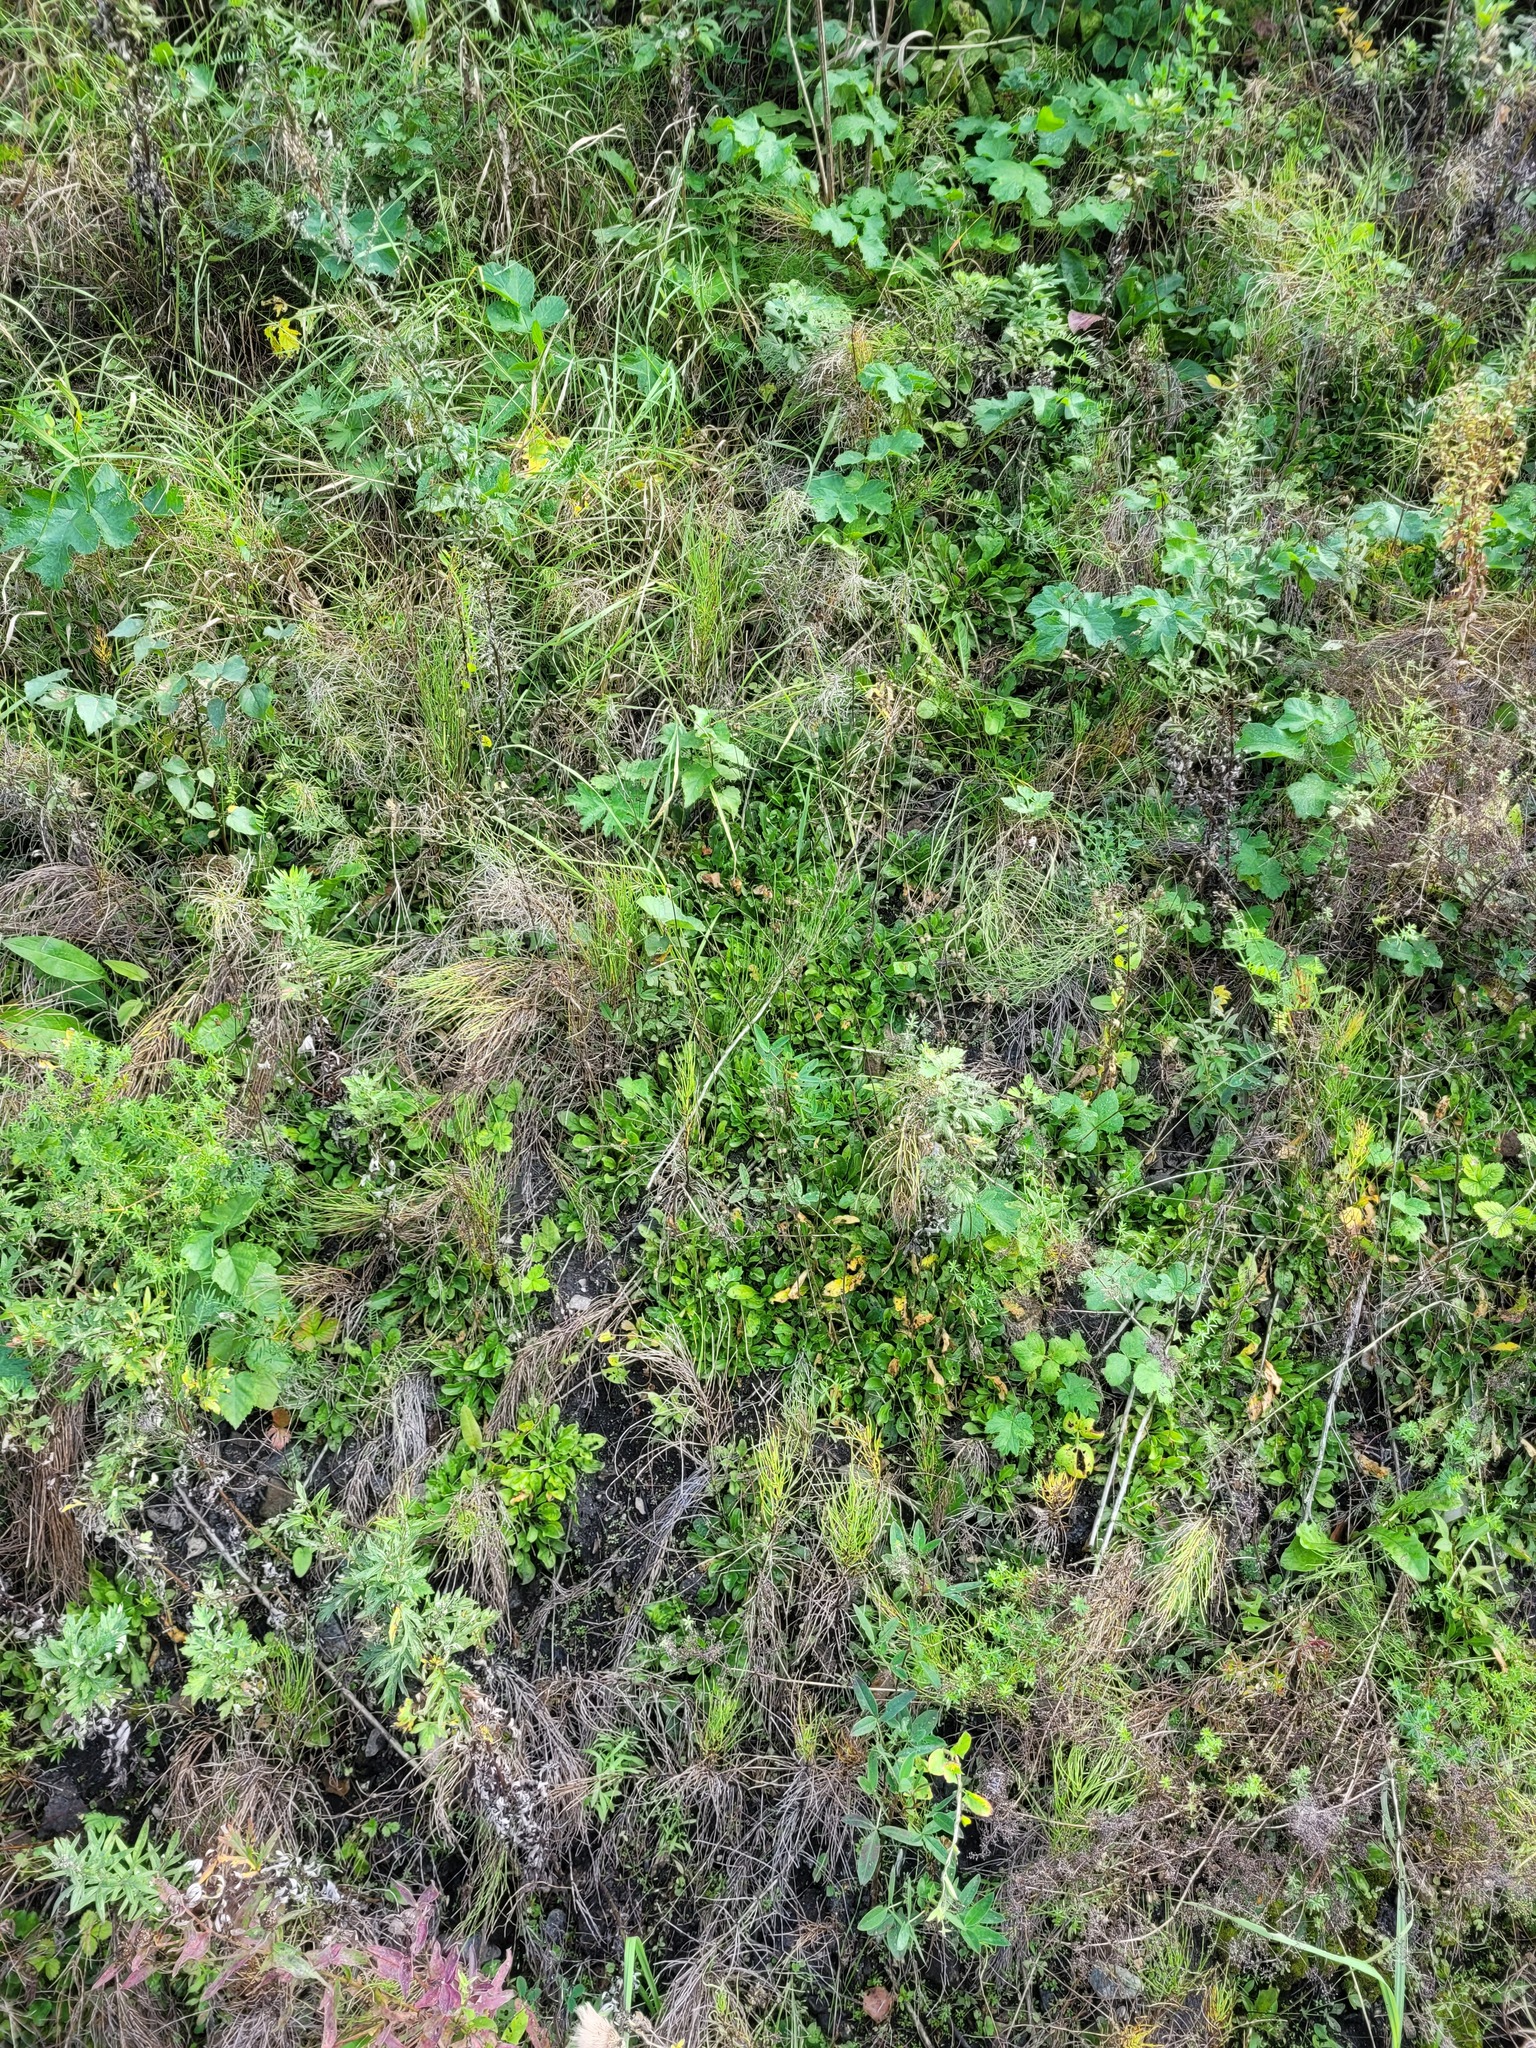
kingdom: Plantae
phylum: Tracheophyta
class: Magnoliopsida
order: Caryophyllales
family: Caryophyllaceae
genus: Silene
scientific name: Silene nutans
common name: Nottingham catchfly
